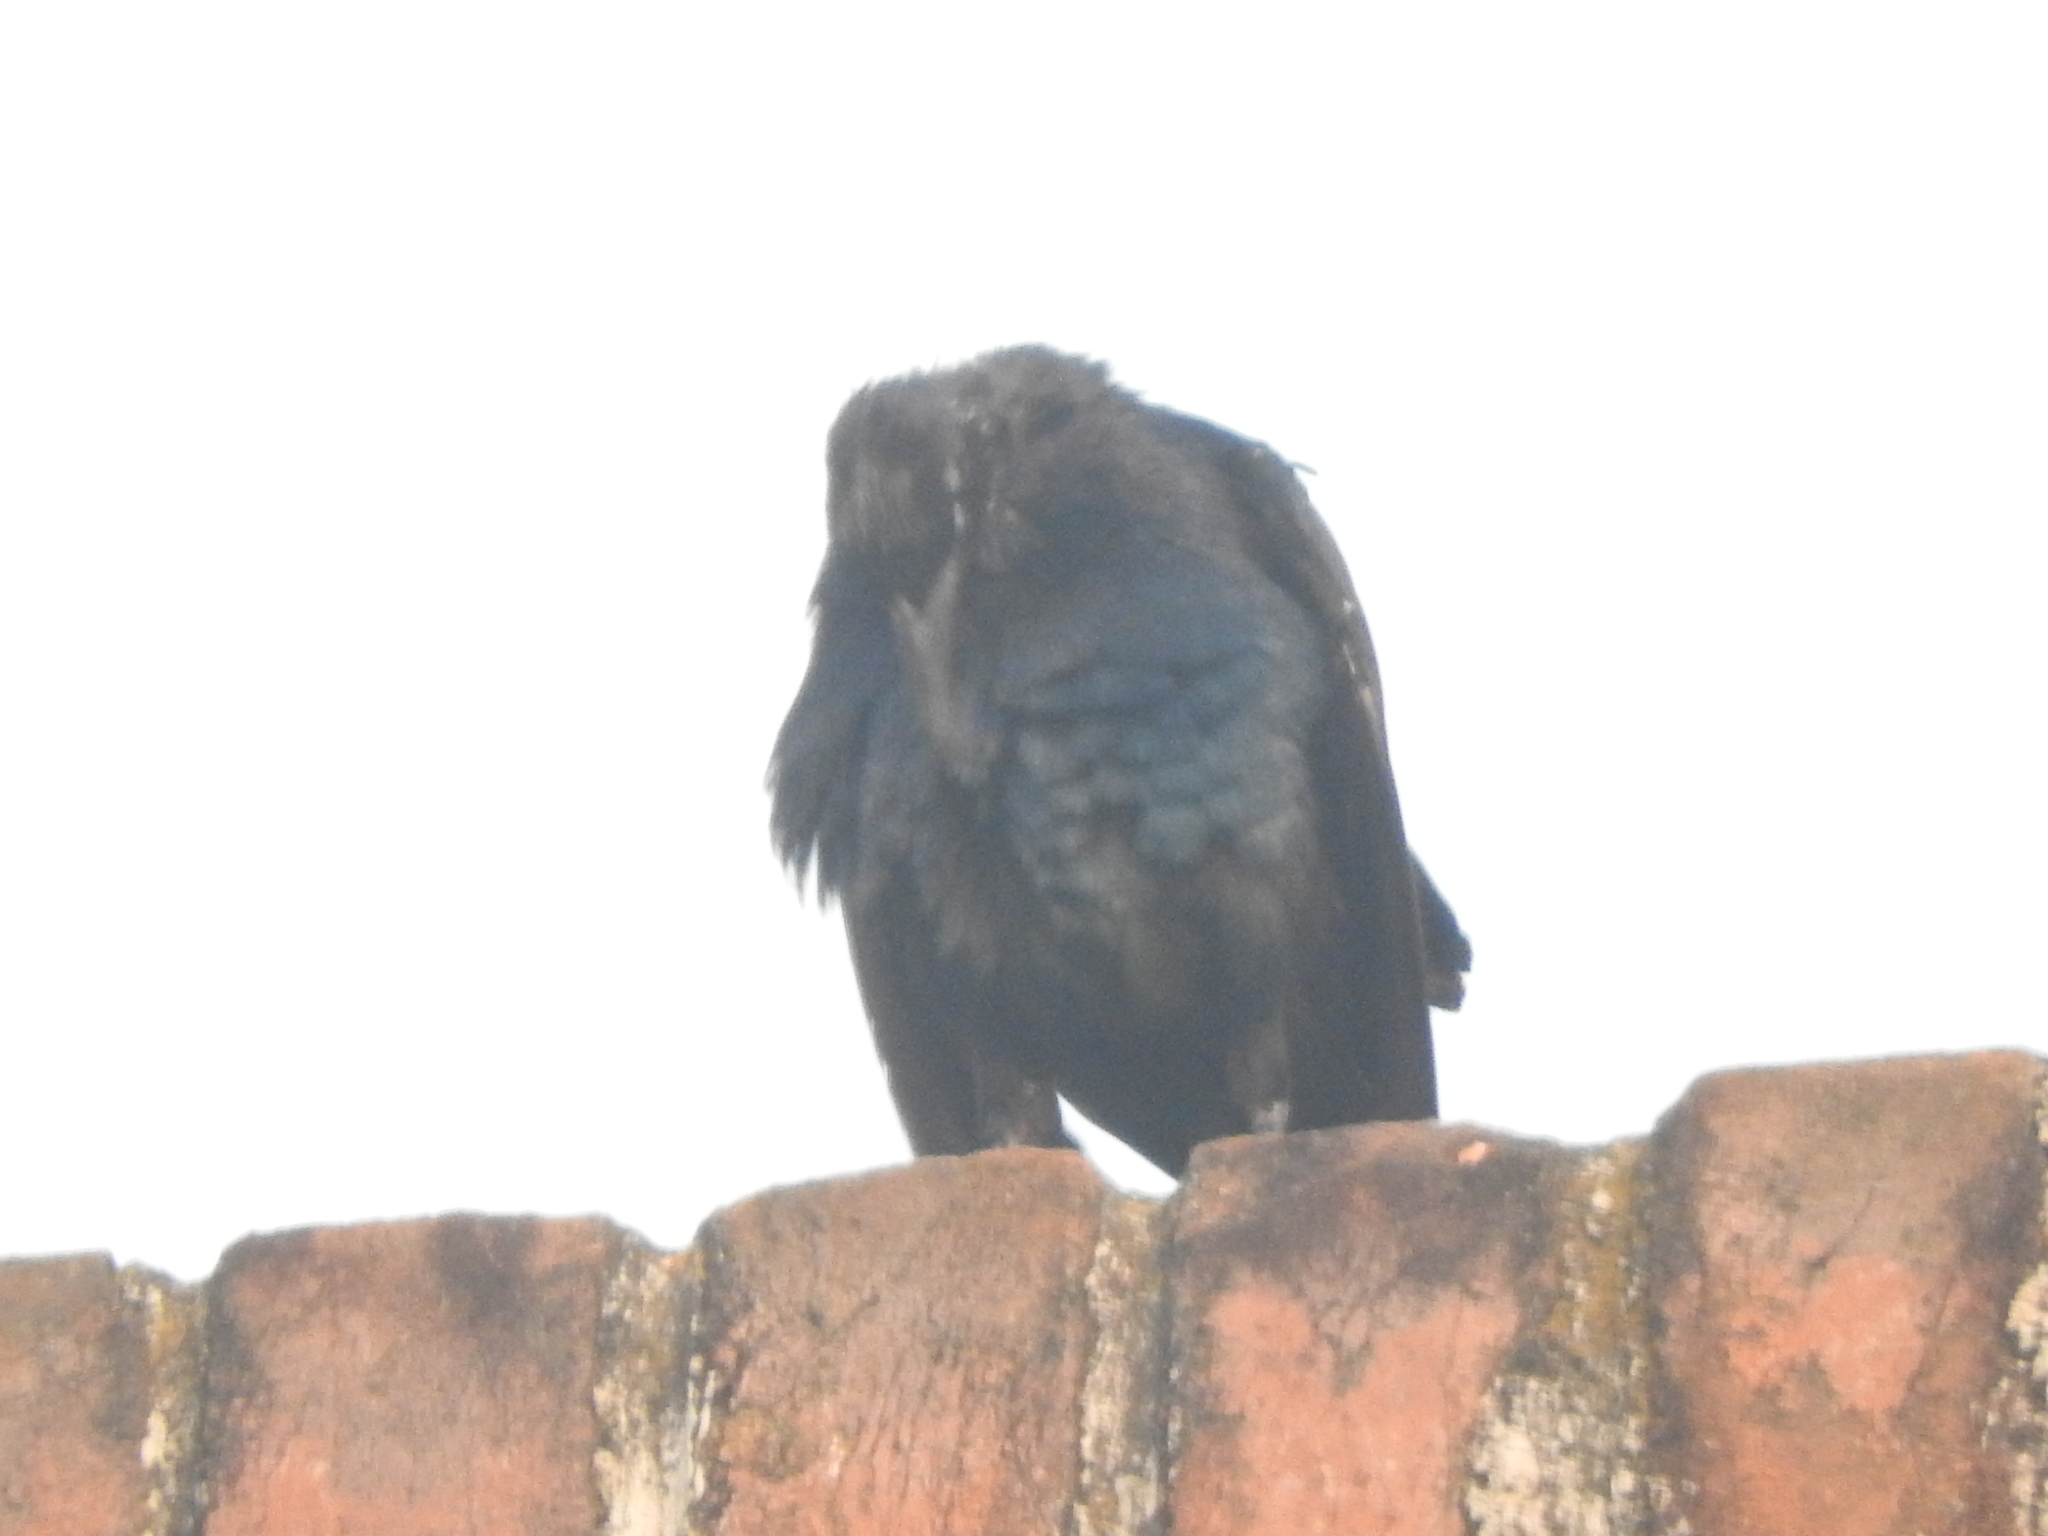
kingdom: Animalia
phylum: Chordata
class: Aves
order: Passeriformes
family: Icteridae
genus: Quiscalus
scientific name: Quiscalus mexicanus
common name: Great-tailed grackle
